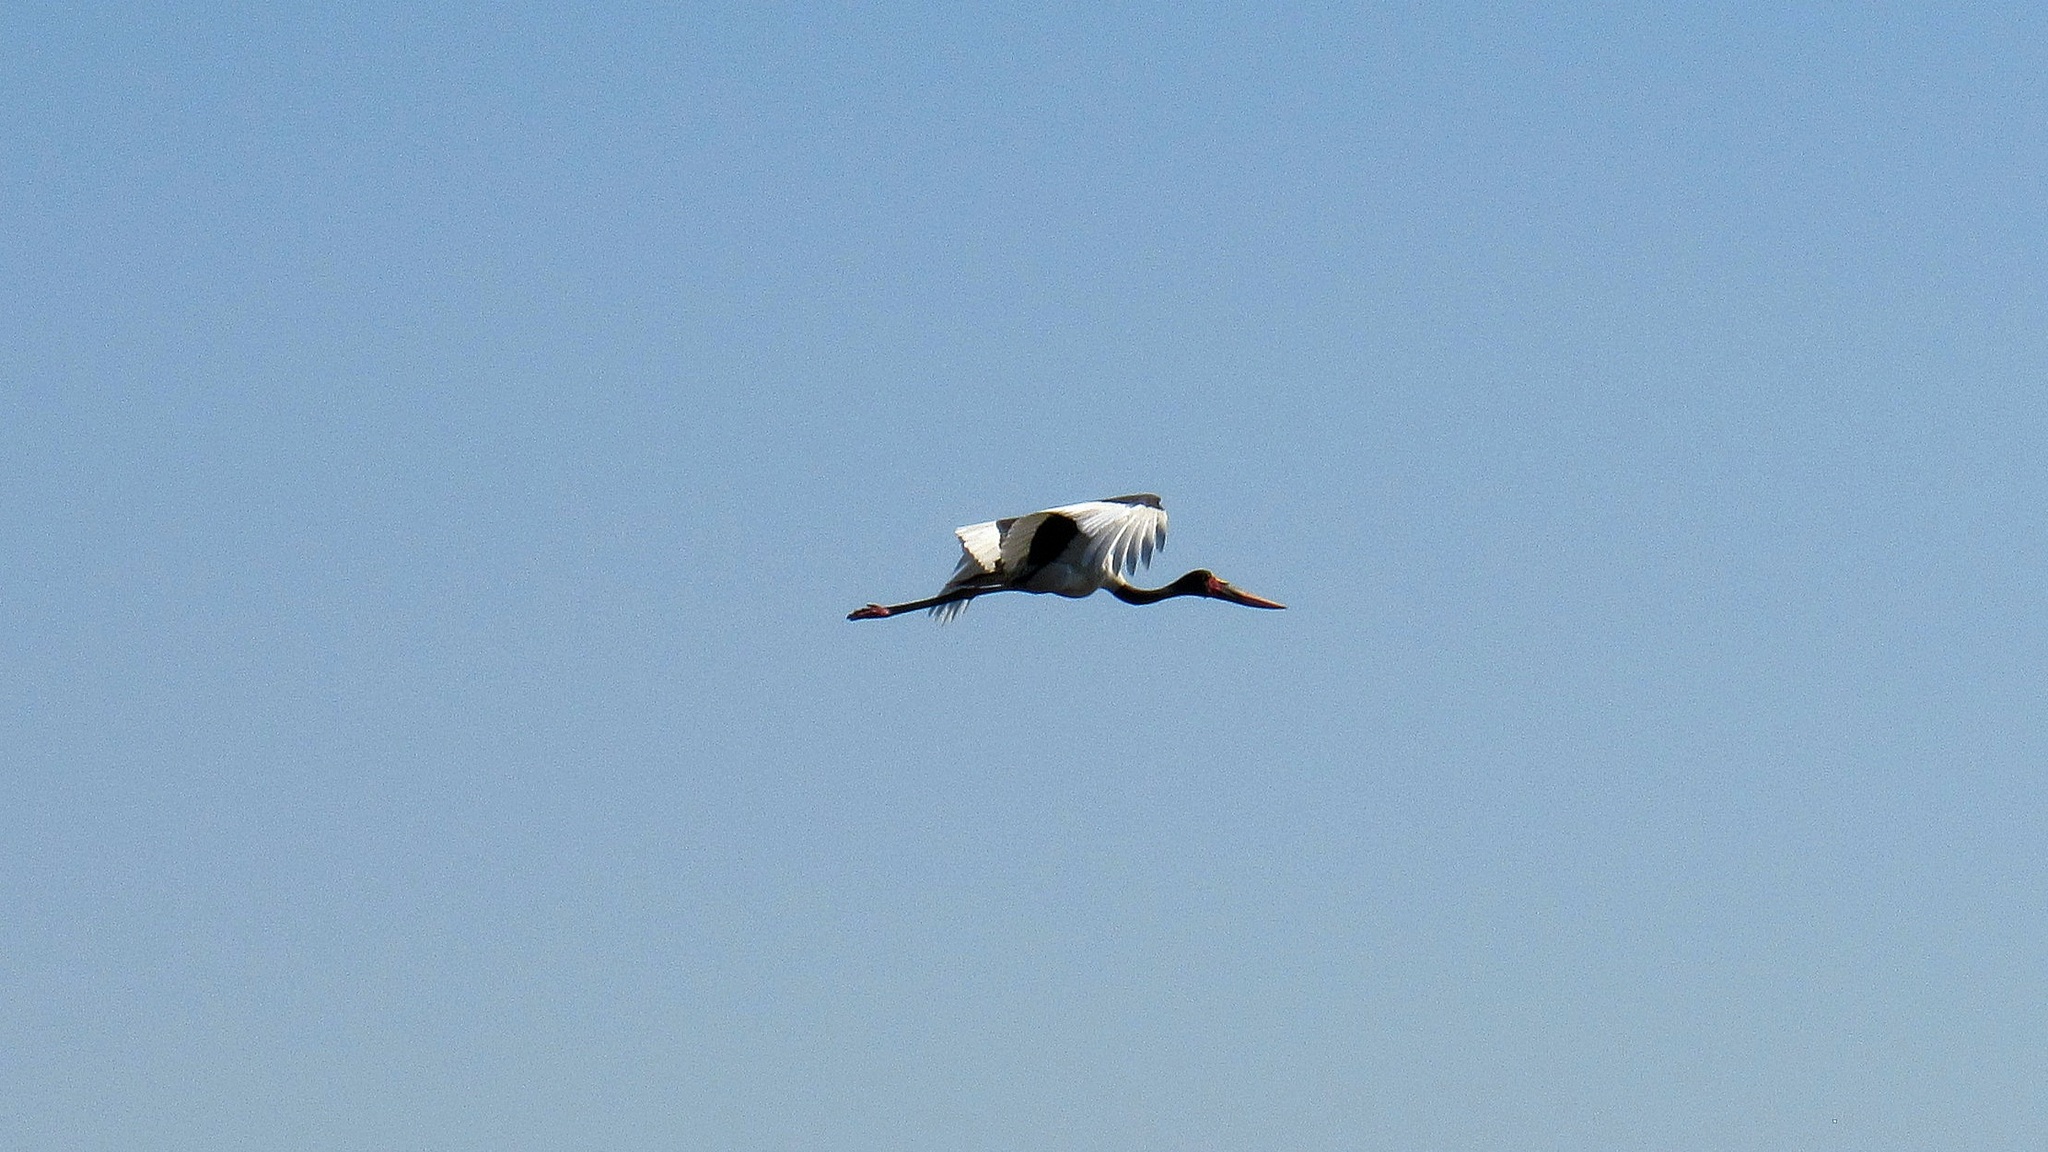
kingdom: Animalia
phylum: Chordata
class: Aves
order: Ciconiiformes
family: Ciconiidae
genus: Ephippiorhynchus
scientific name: Ephippiorhynchus senegalensis
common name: Saddle-billed stork
